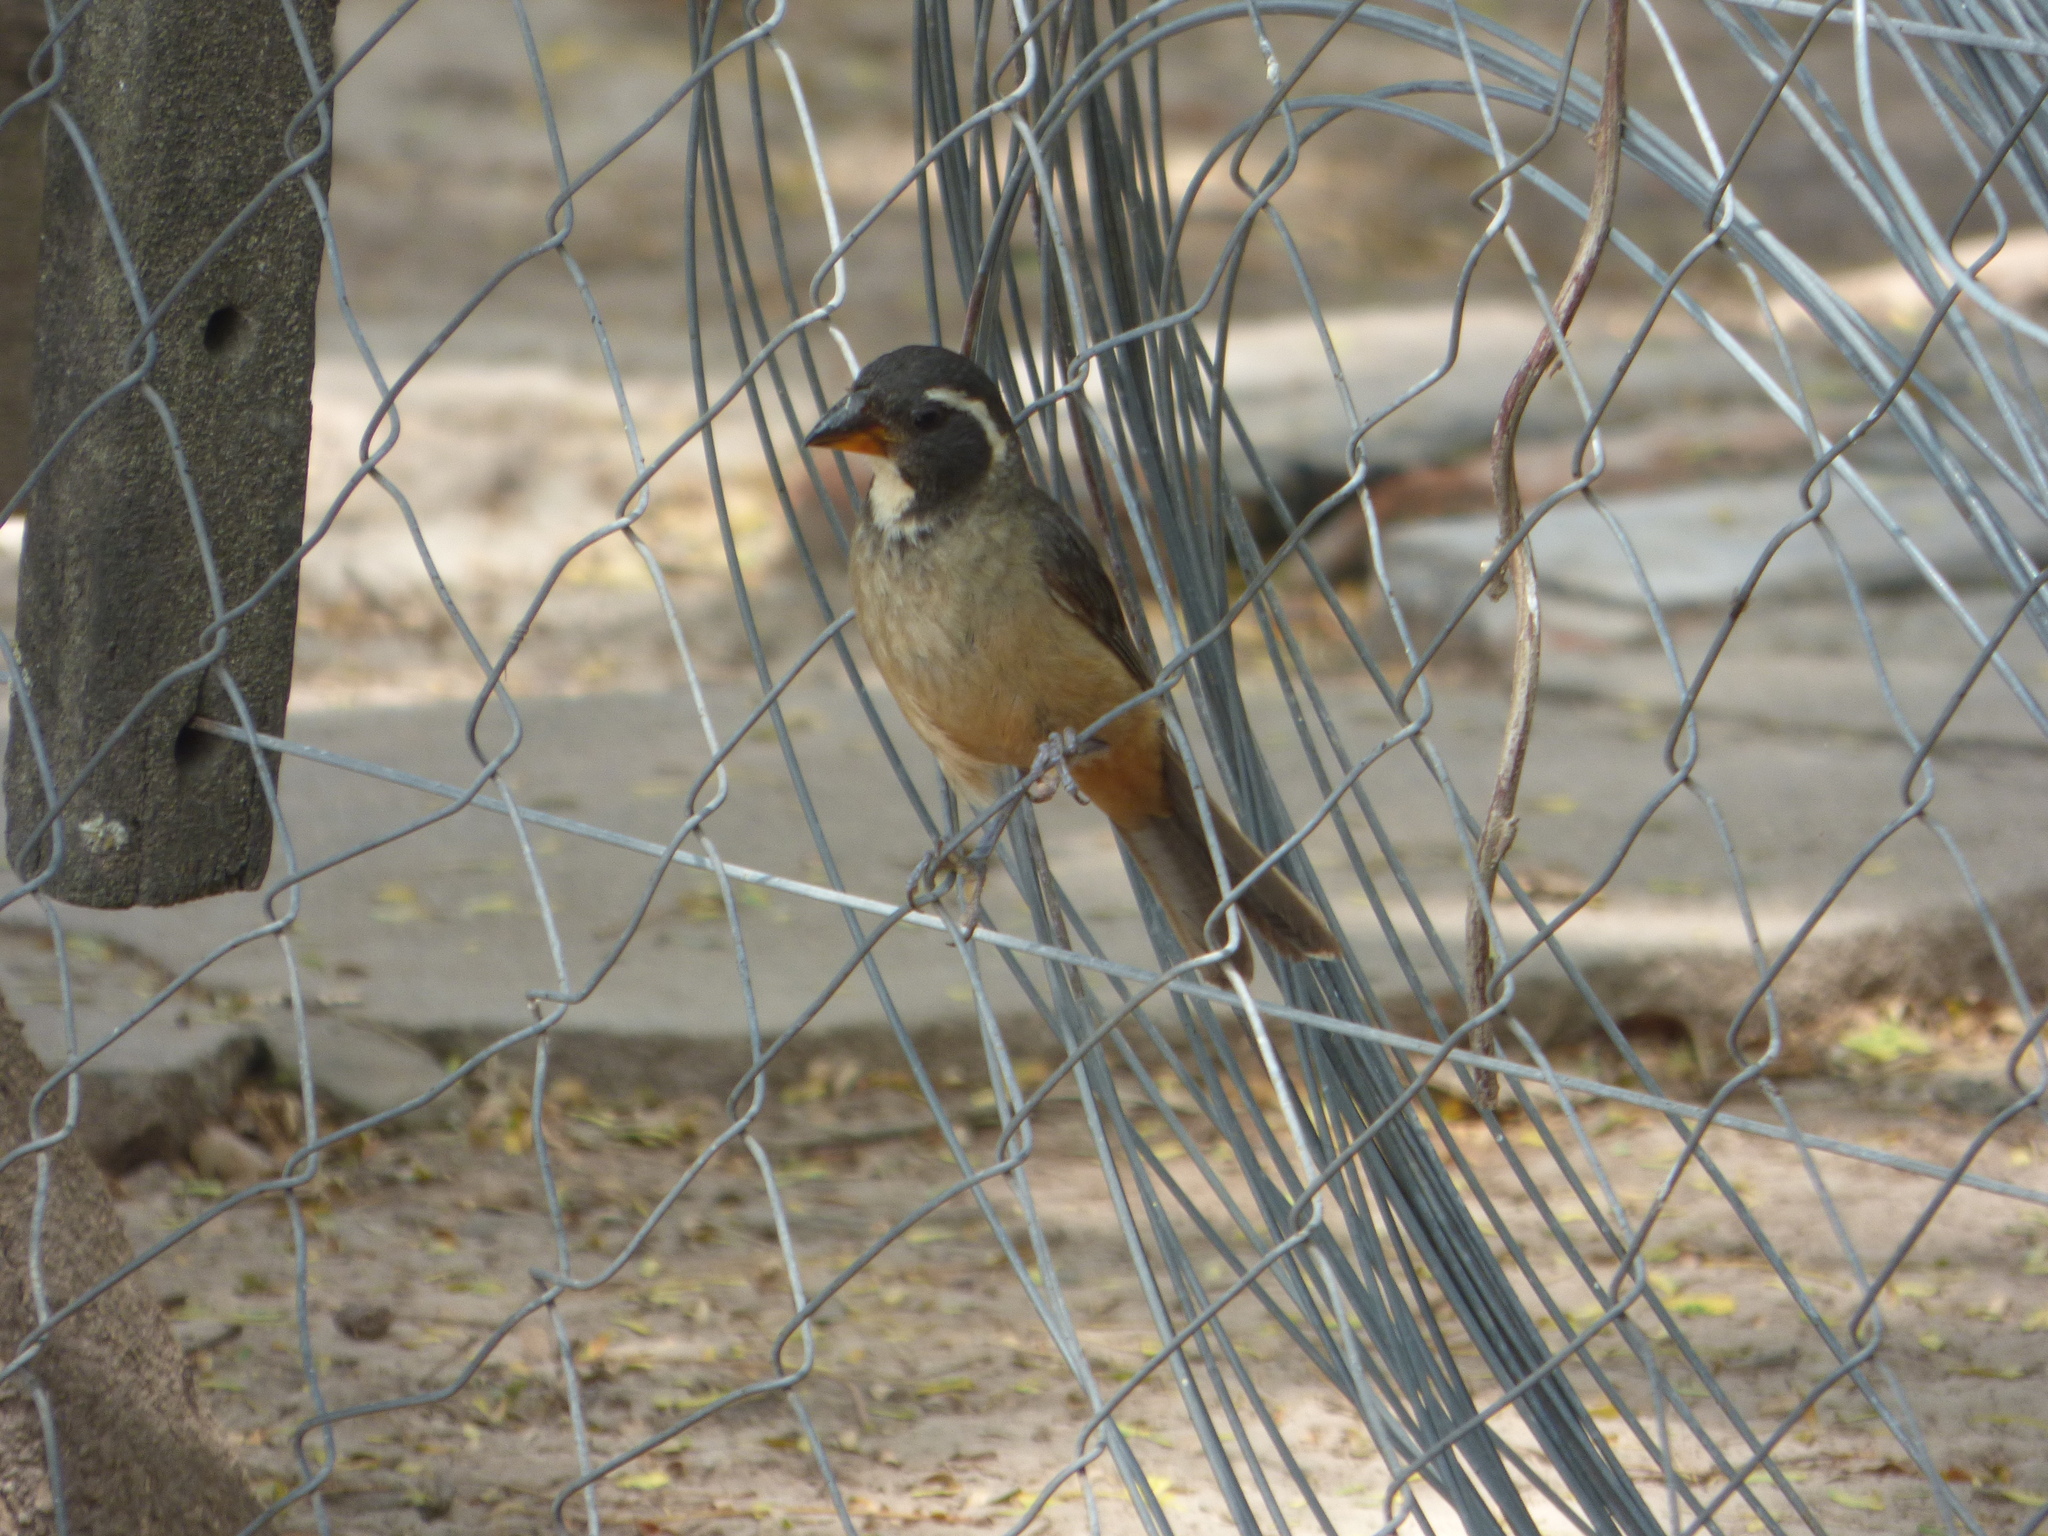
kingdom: Animalia
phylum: Chordata
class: Aves
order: Passeriformes
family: Thraupidae
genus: Saltator
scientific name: Saltator aurantiirostris
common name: Golden-billed saltator
